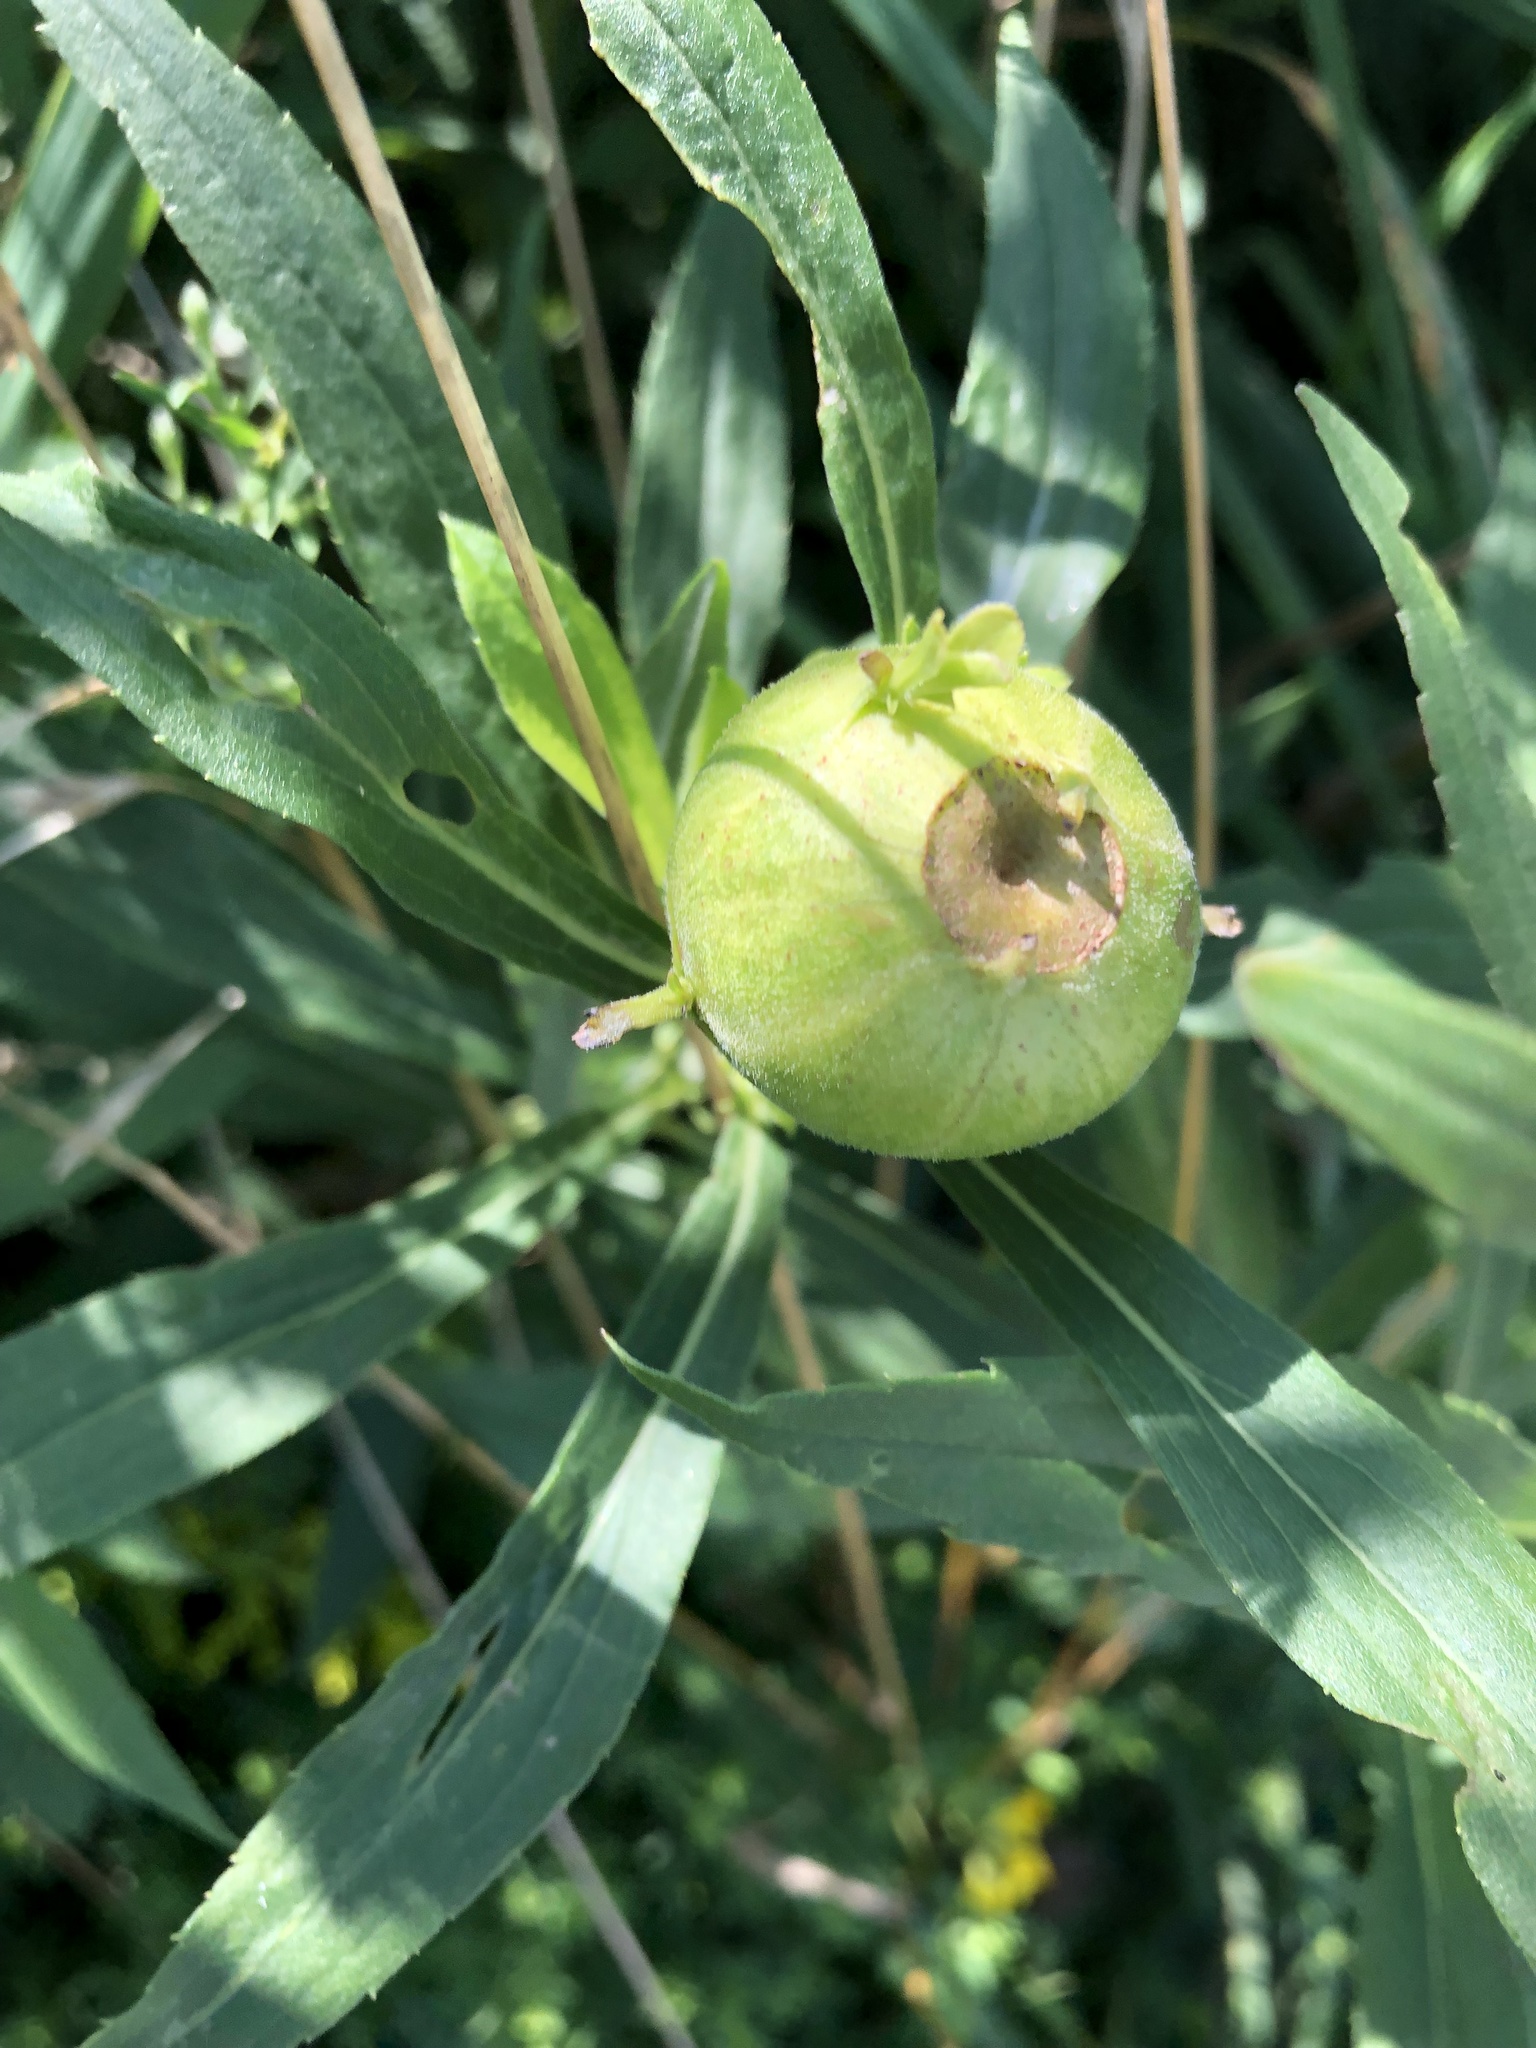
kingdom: Animalia
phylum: Arthropoda
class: Insecta
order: Diptera
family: Tephritidae
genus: Eurosta
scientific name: Eurosta solidaginis
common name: Goldenrod gall fly
